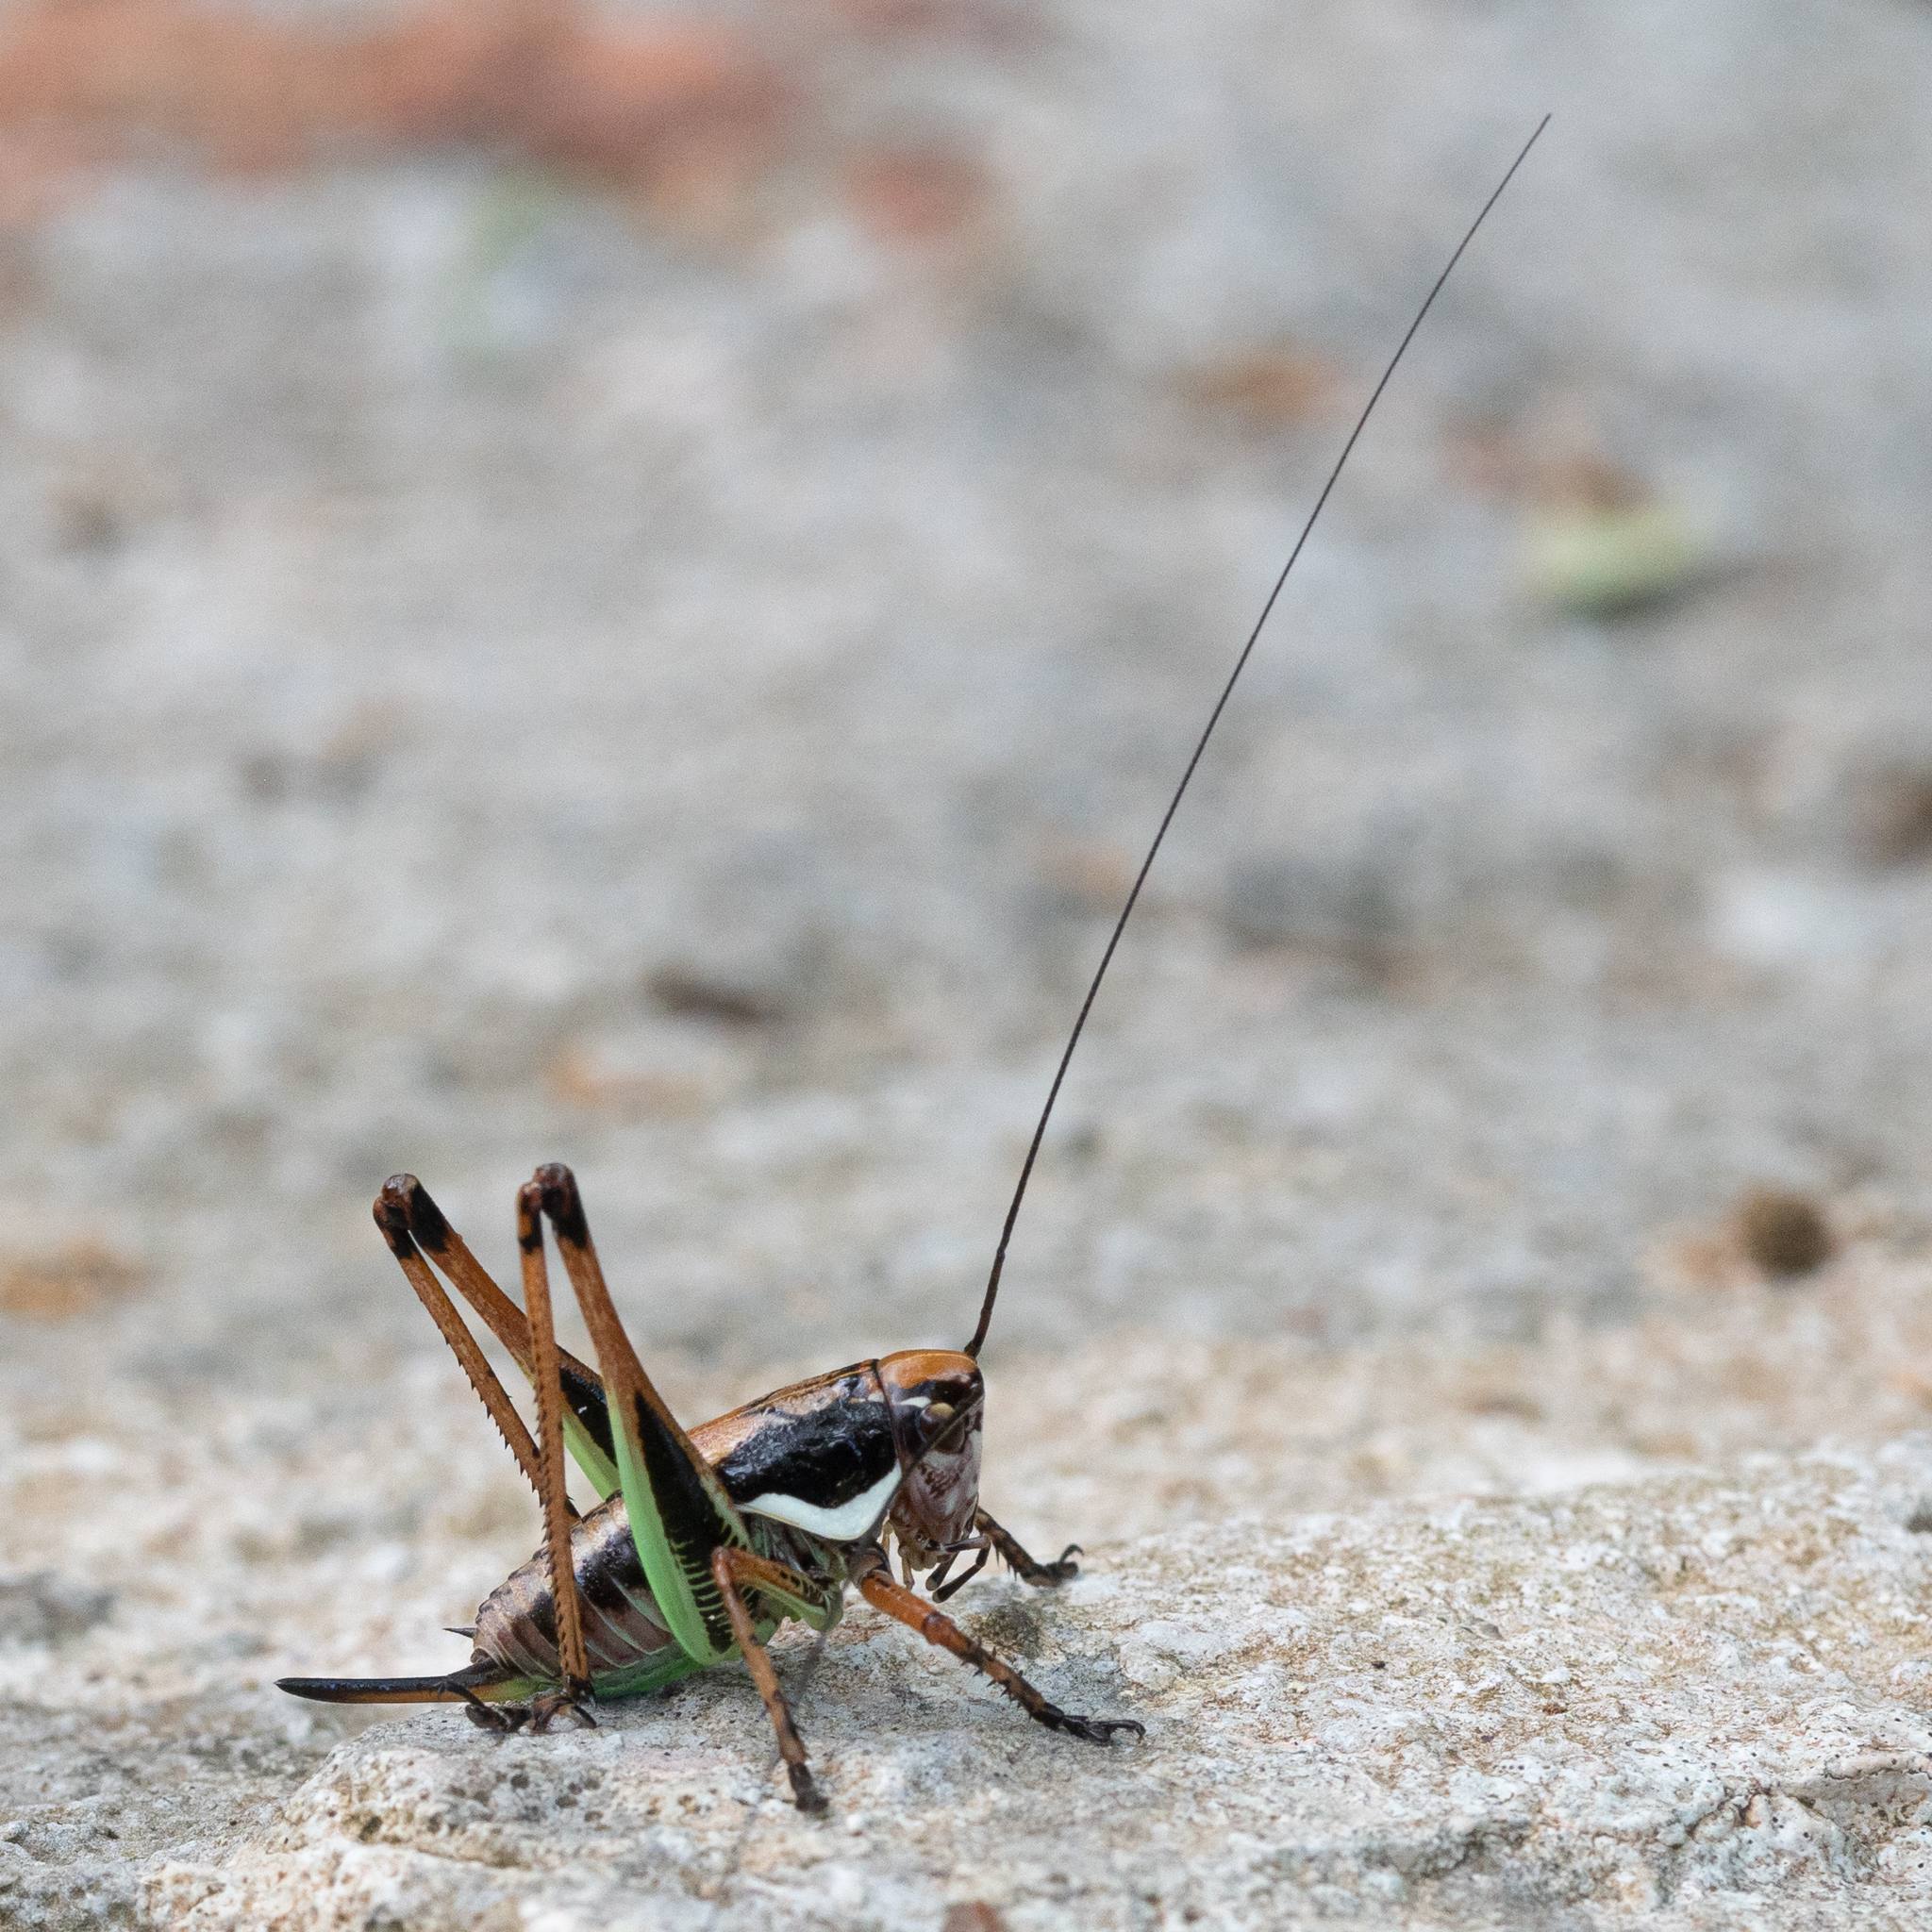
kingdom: Animalia
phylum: Arthropoda
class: Insecta
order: Orthoptera
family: Tettigoniidae
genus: Eupholidoptera
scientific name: Eupholidoptera schmidti
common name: Schmidt's marbled bush-cricket
